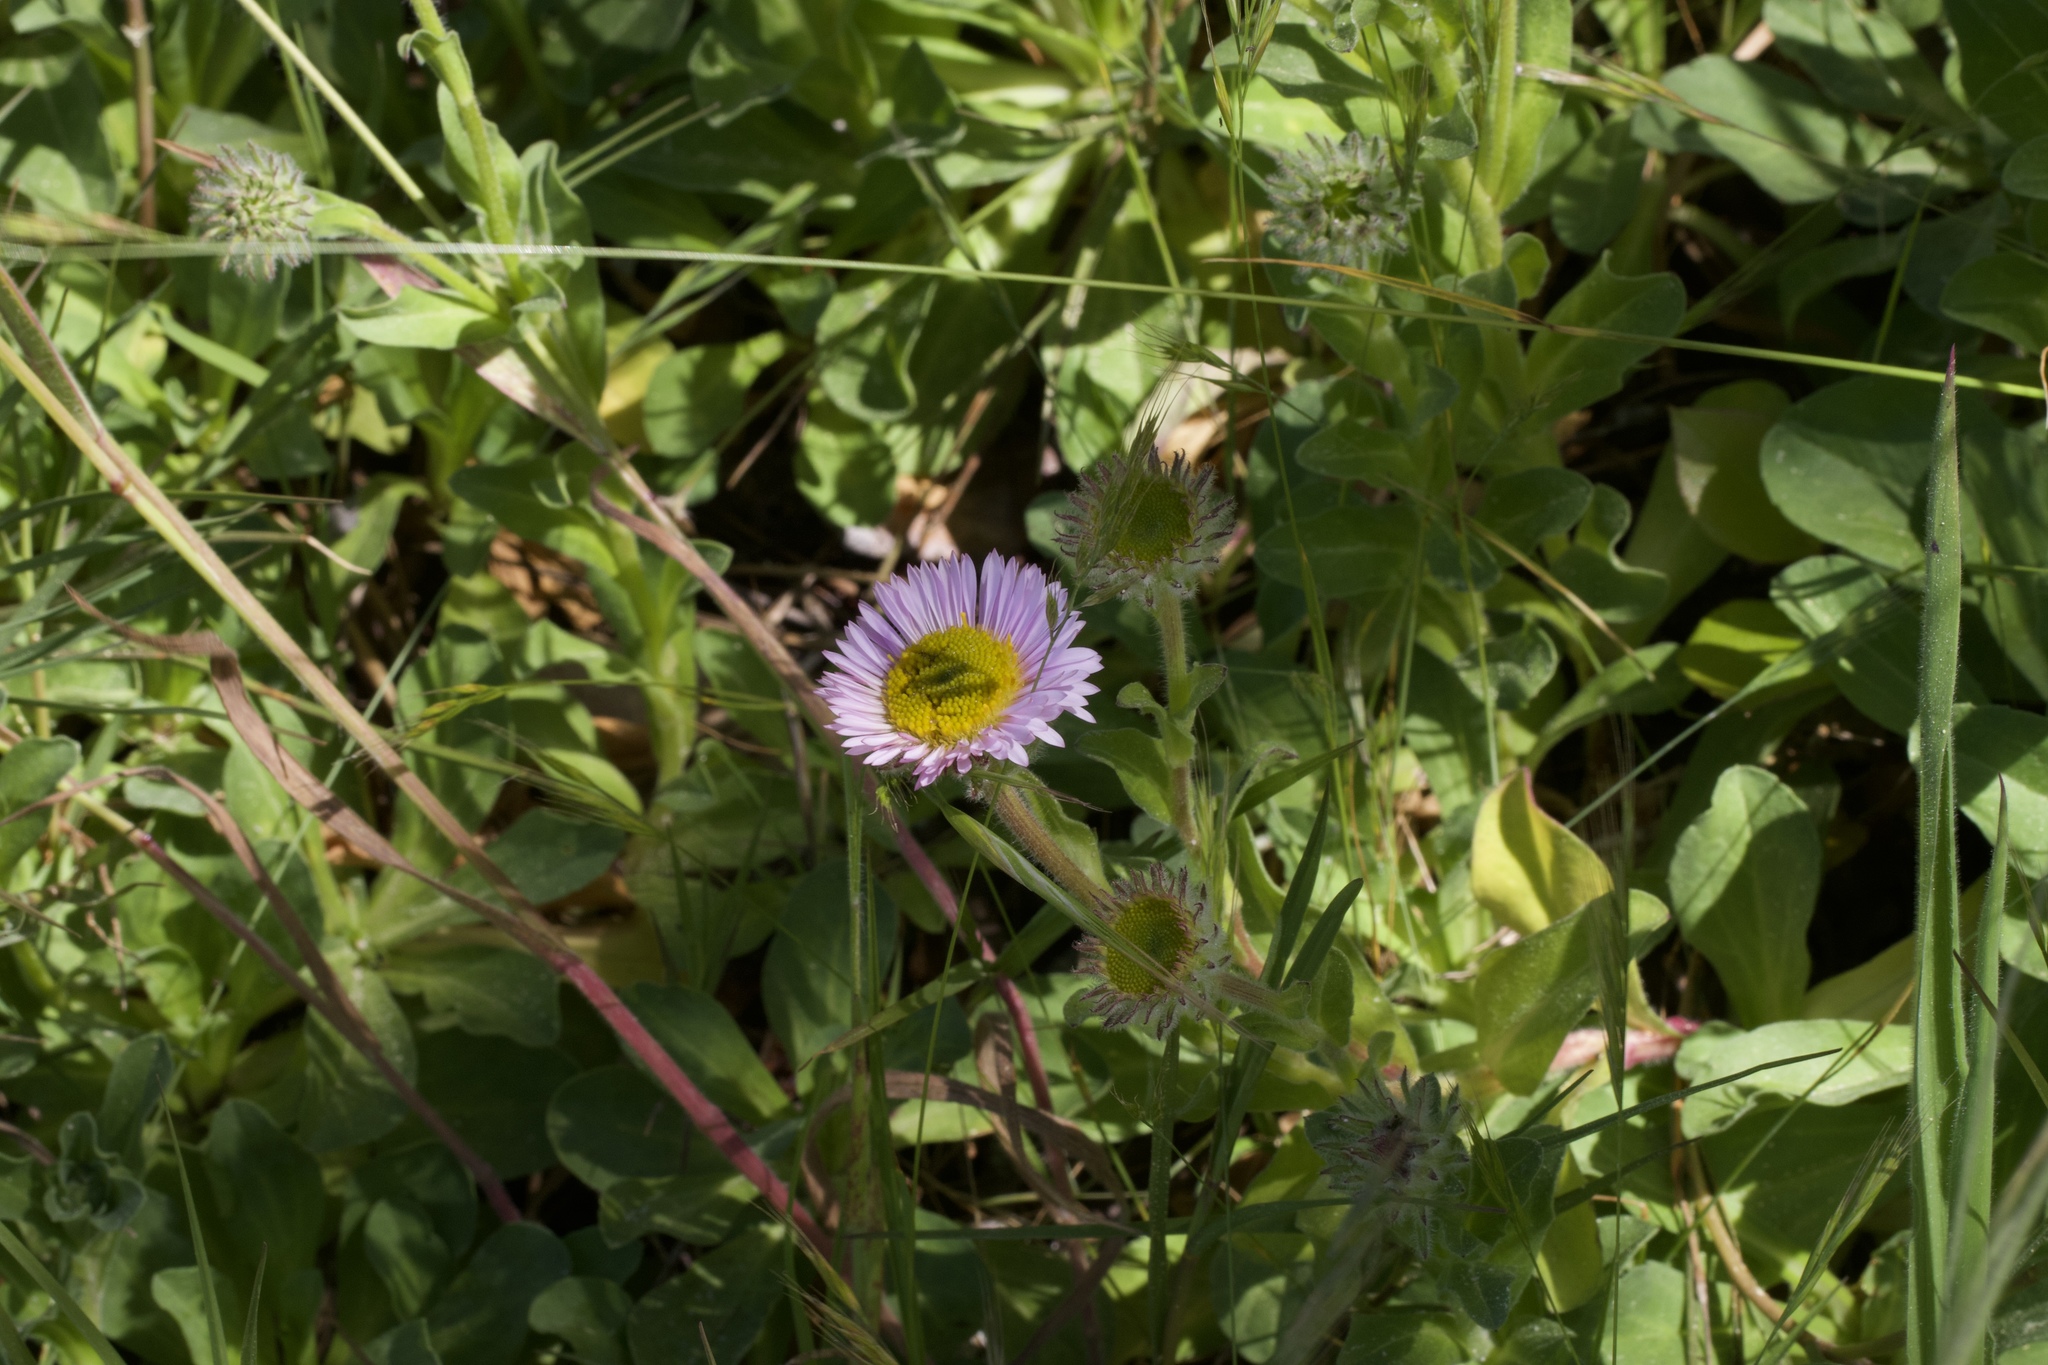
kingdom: Plantae
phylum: Tracheophyta
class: Magnoliopsida
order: Asterales
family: Asteraceae
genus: Erigeron
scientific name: Erigeron glaucus
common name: Seaside daisy
